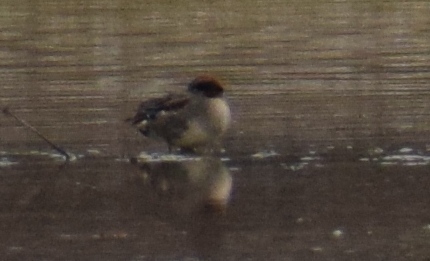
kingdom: Animalia
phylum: Chordata
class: Aves
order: Anseriformes
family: Anatidae
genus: Anas
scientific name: Anas crecca
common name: Eurasian teal
